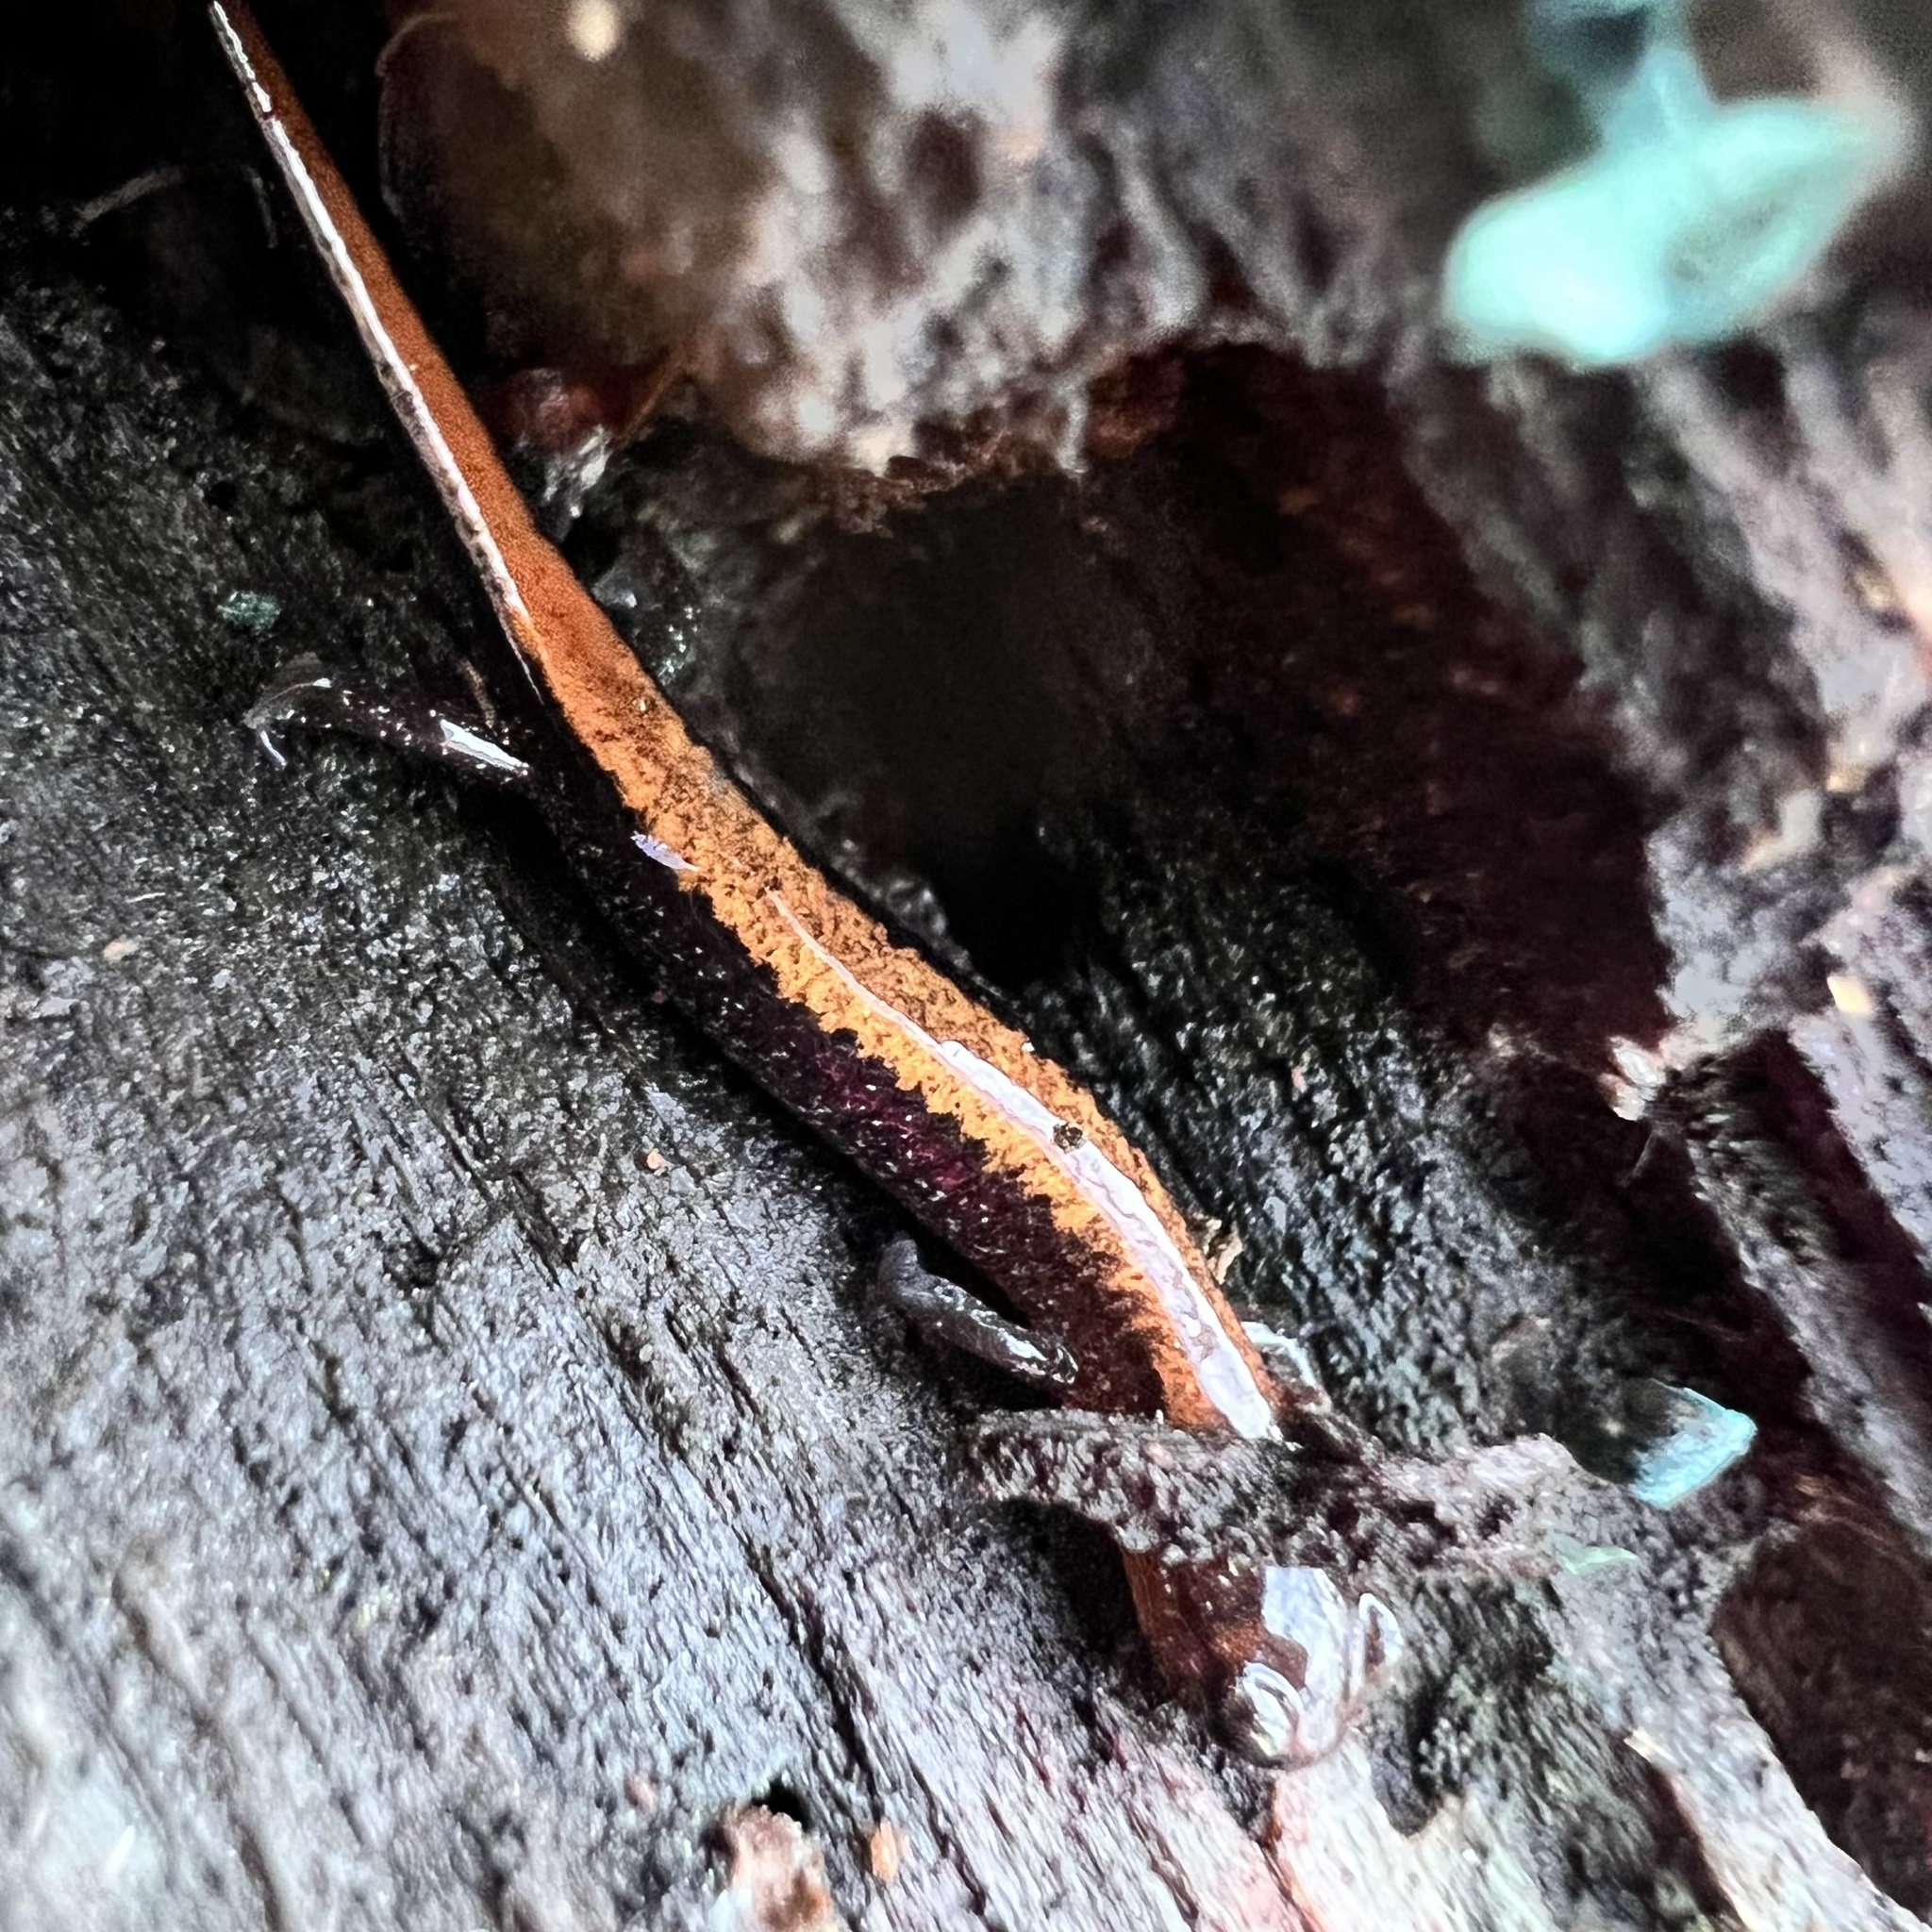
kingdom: Animalia
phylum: Chordata
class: Amphibia
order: Caudata
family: Plethodontidae
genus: Plethodon
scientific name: Plethodon cinereus
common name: Redback salamander
